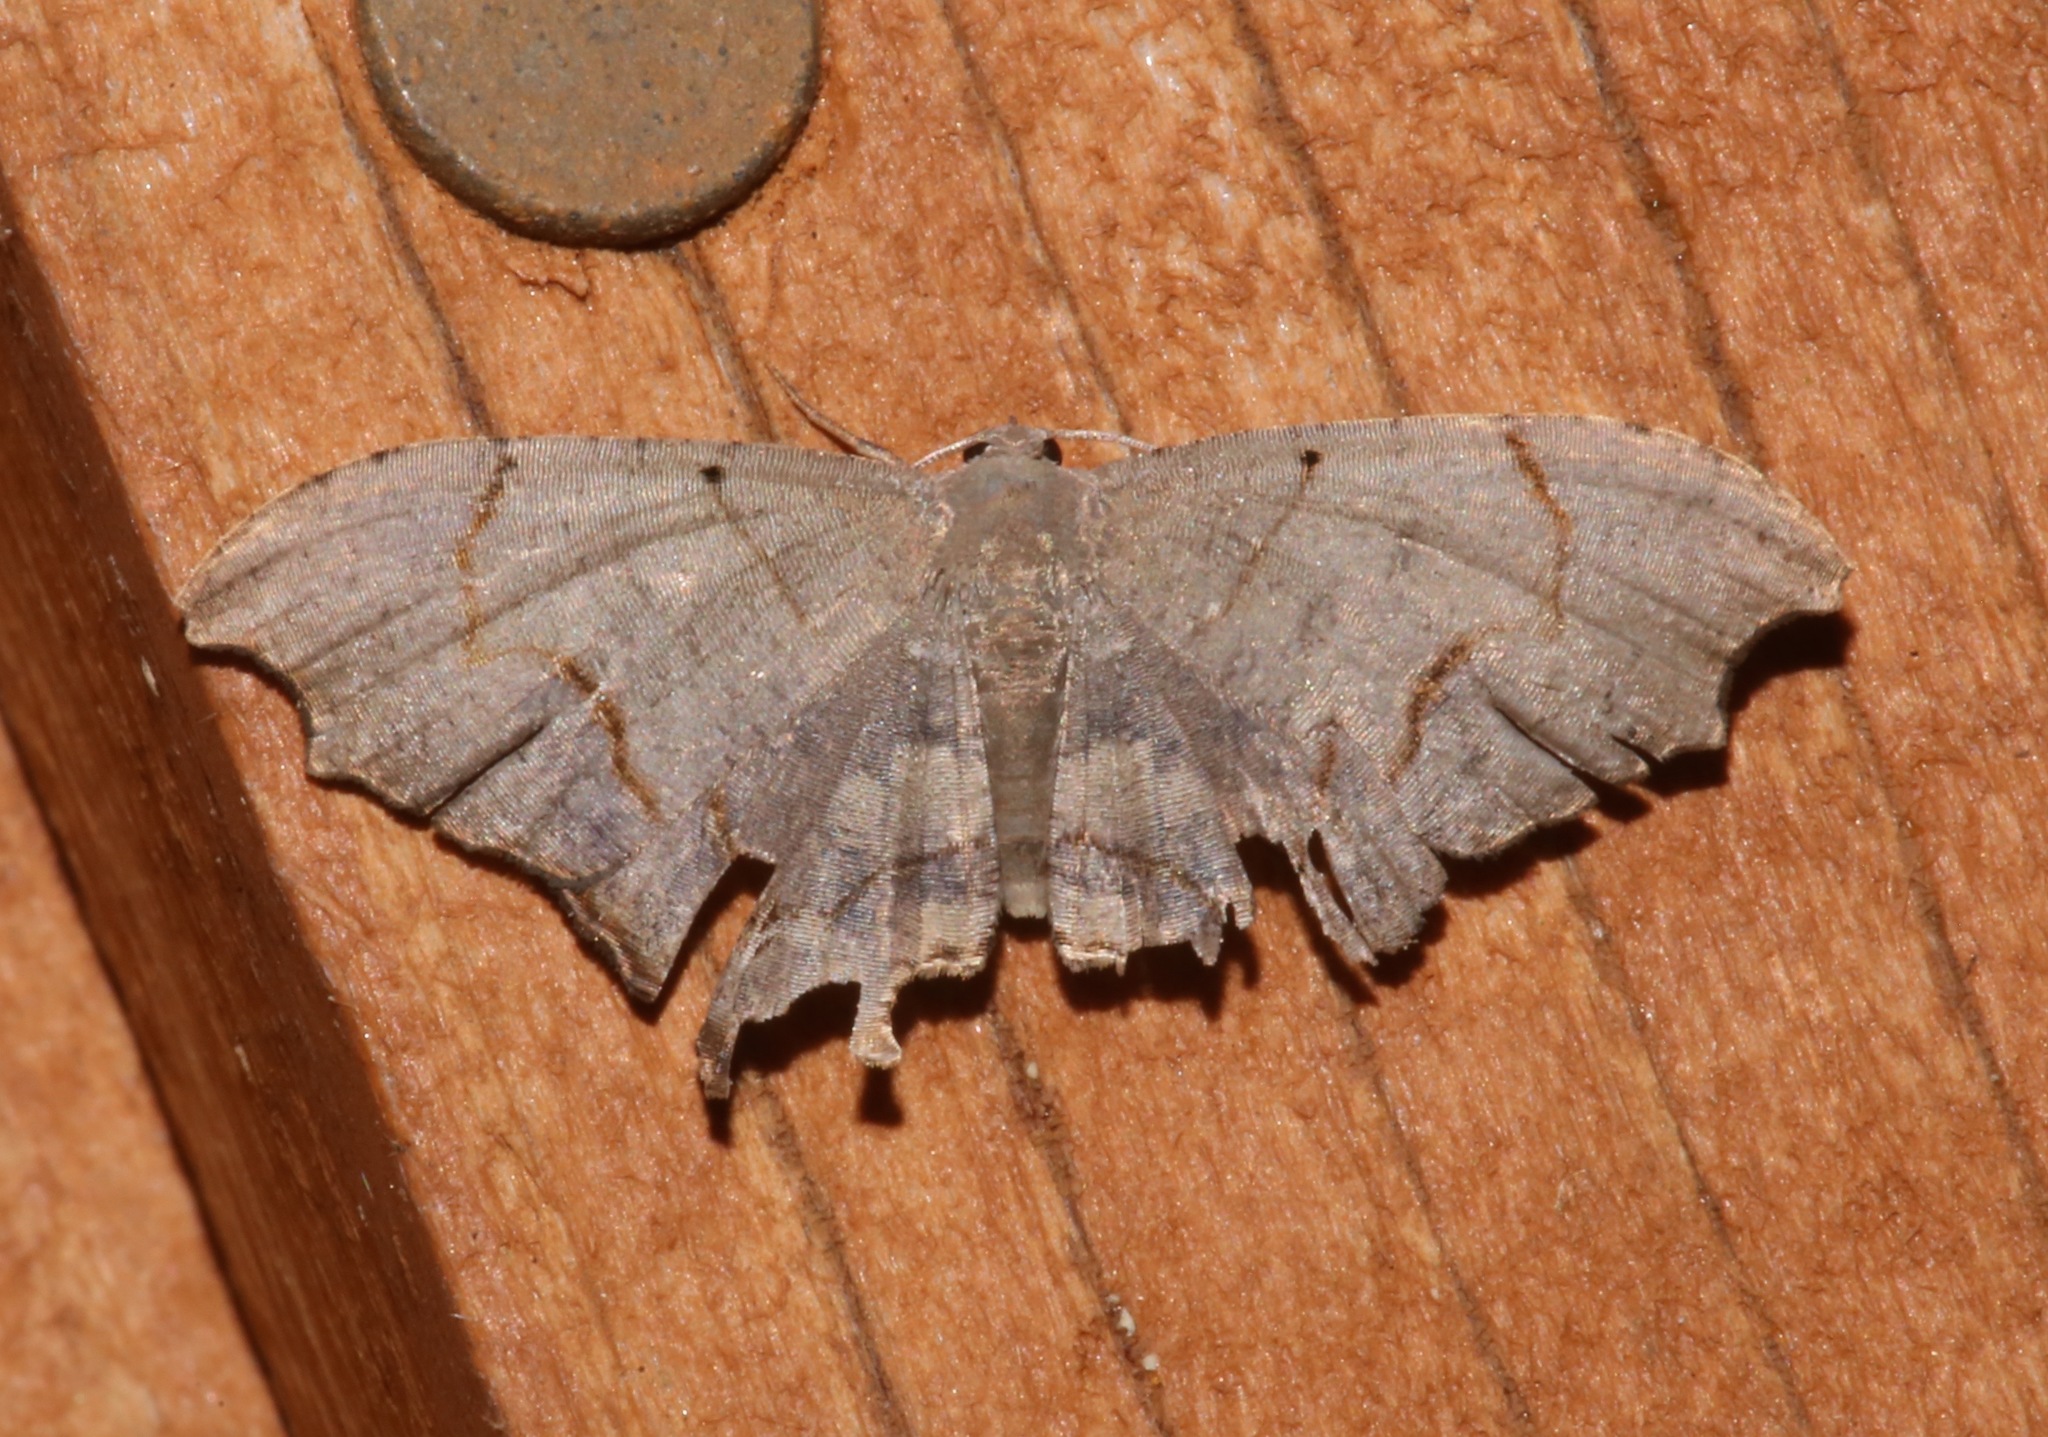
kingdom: Animalia
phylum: Arthropoda
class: Insecta
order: Lepidoptera
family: Uraniidae
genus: Trotorhombia
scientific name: Trotorhombia metachromata
